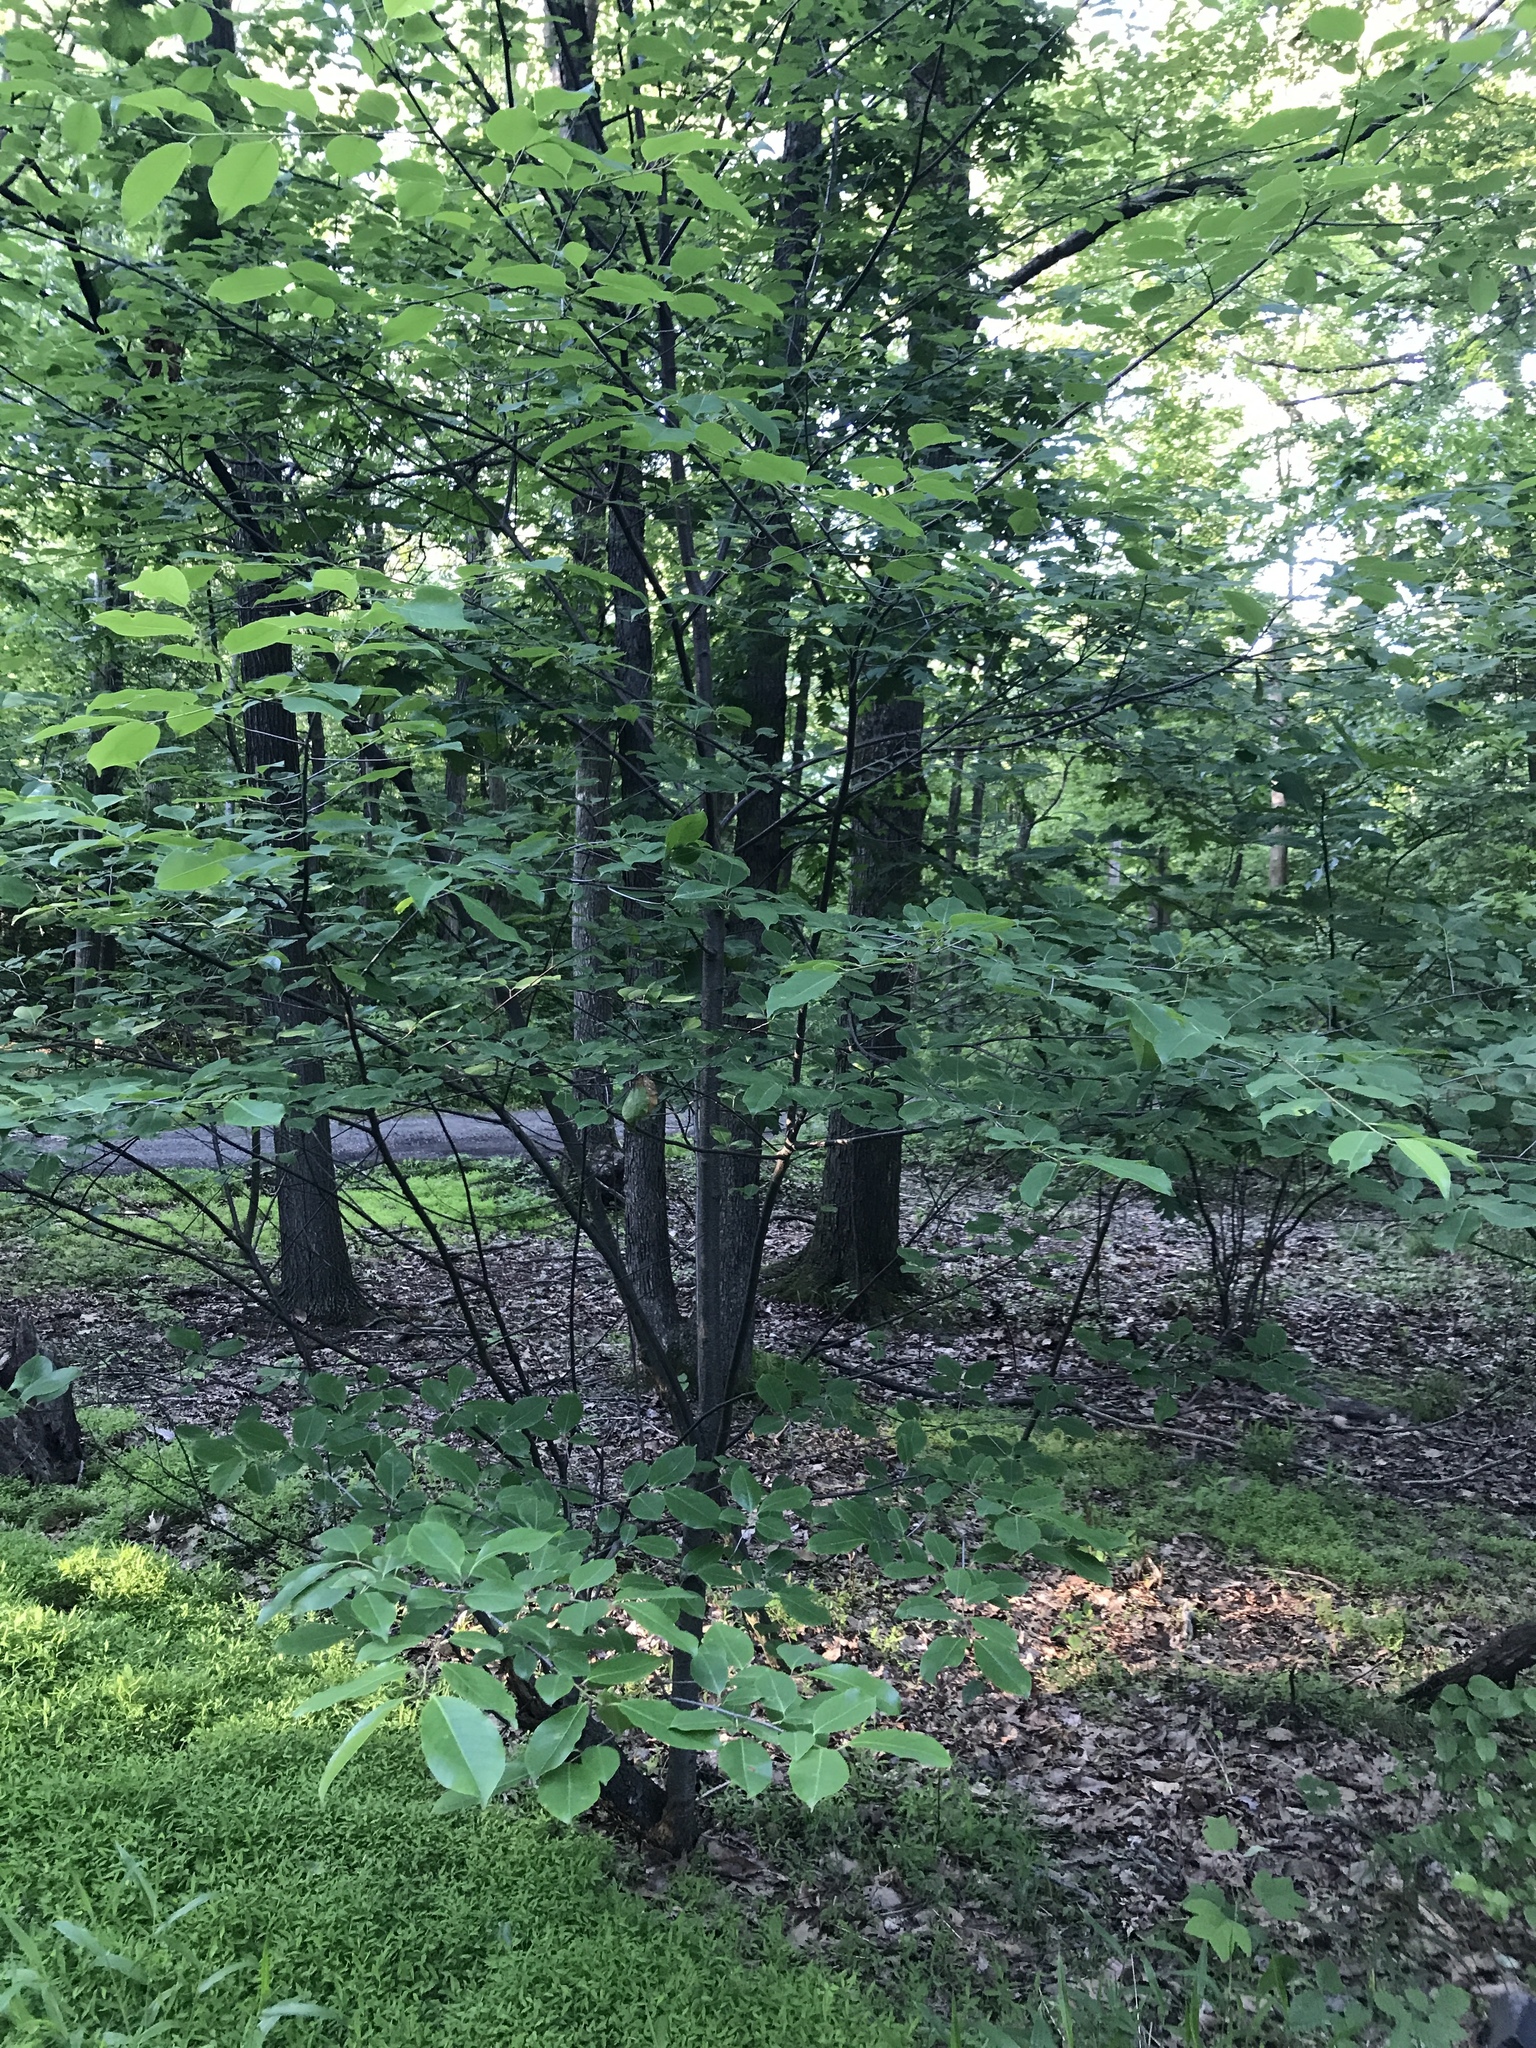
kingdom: Plantae
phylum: Tracheophyta
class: Magnoliopsida
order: Rosales
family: Rosaceae
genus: Prunus
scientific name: Prunus serotina
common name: Black cherry
